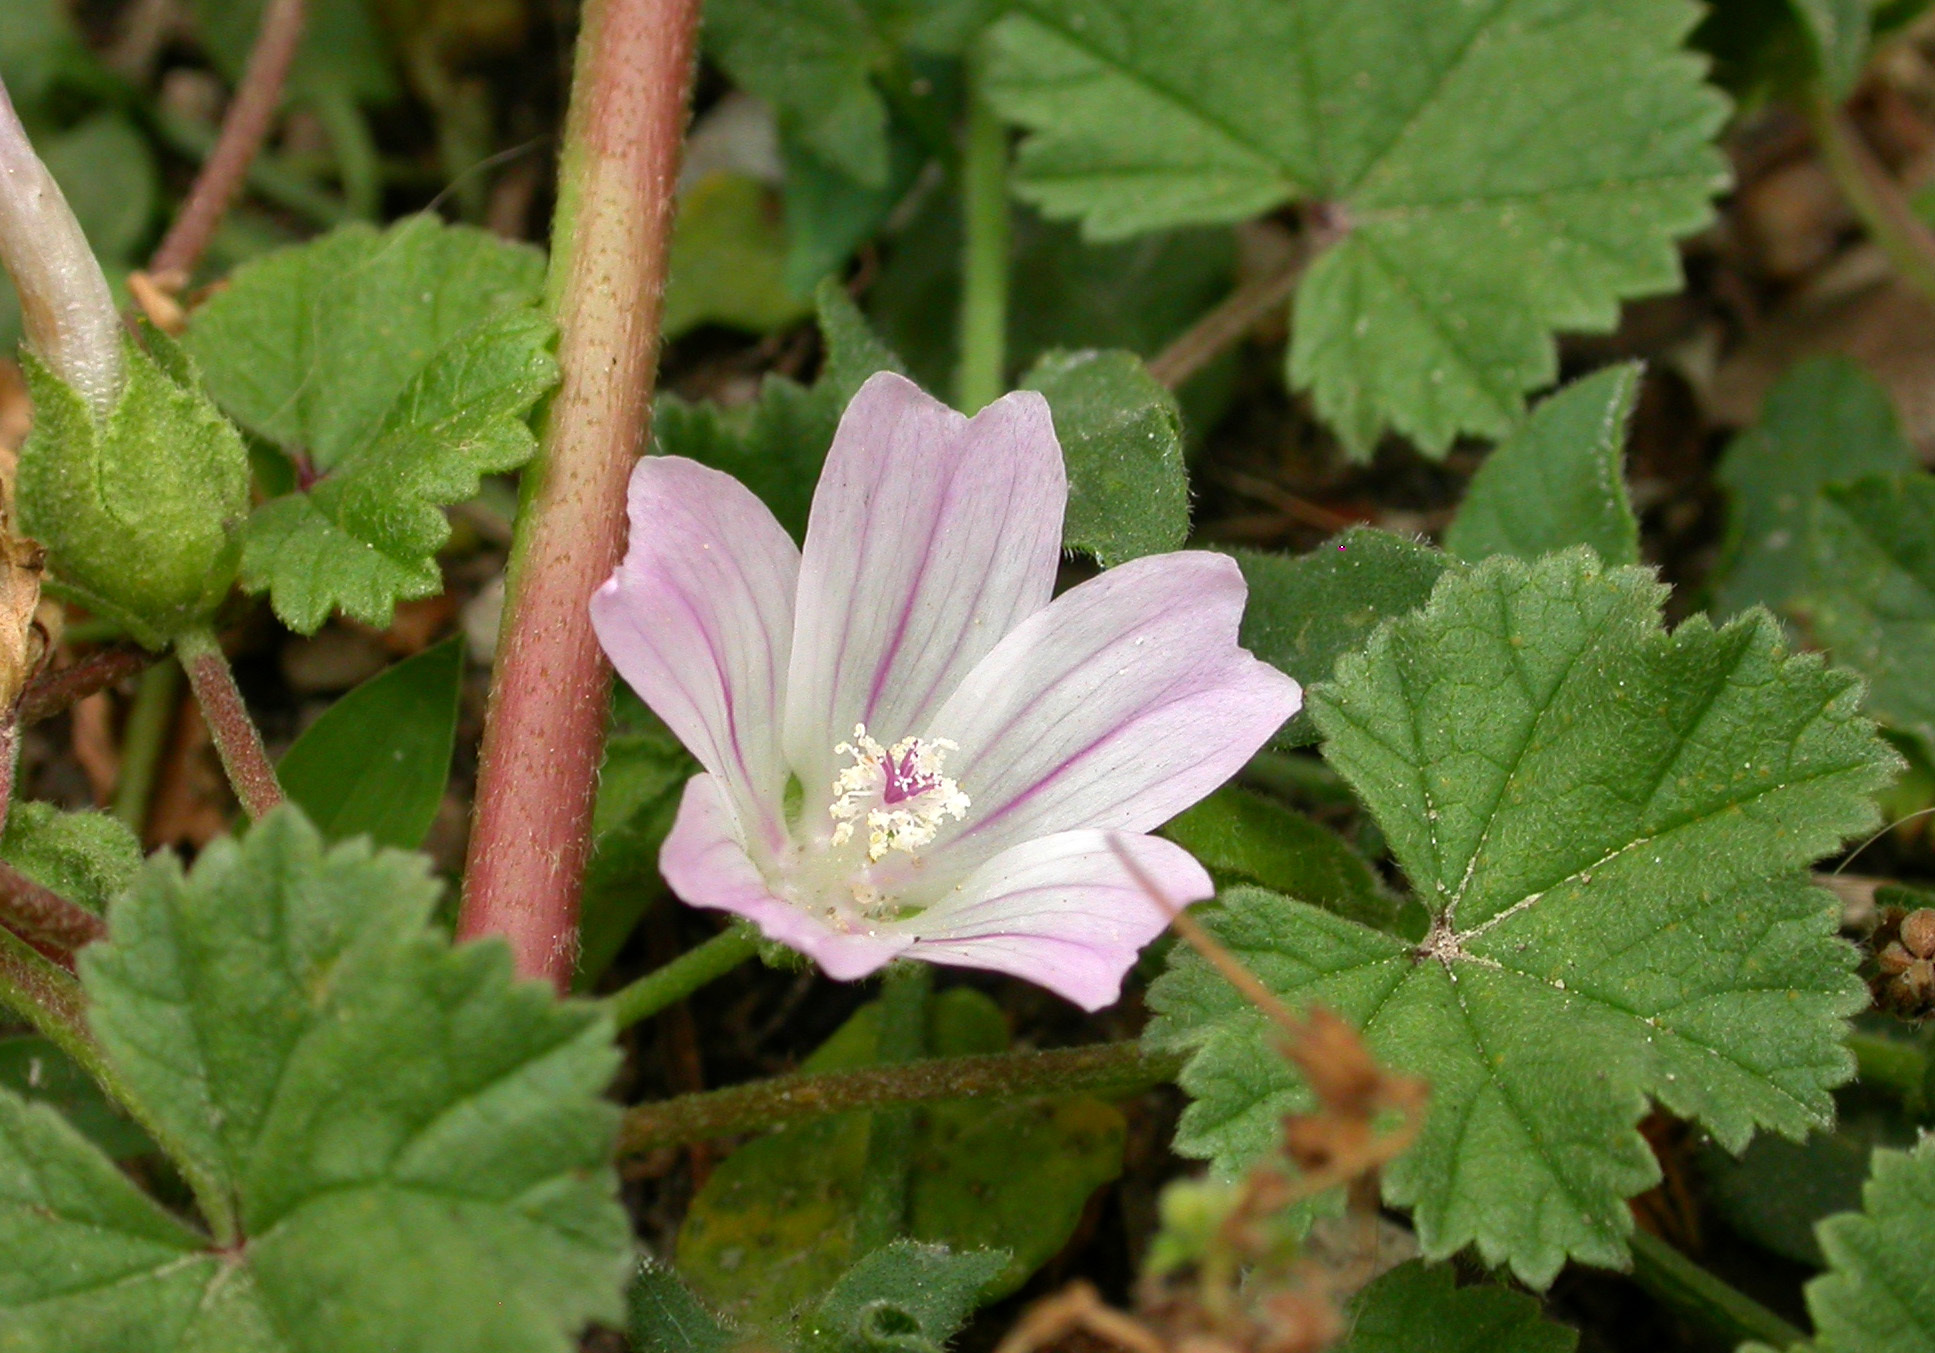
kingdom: Plantae
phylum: Tracheophyta
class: Magnoliopsida
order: Malvales
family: Malvaceae
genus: Malva
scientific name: Malva neglecta
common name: Common mallow
